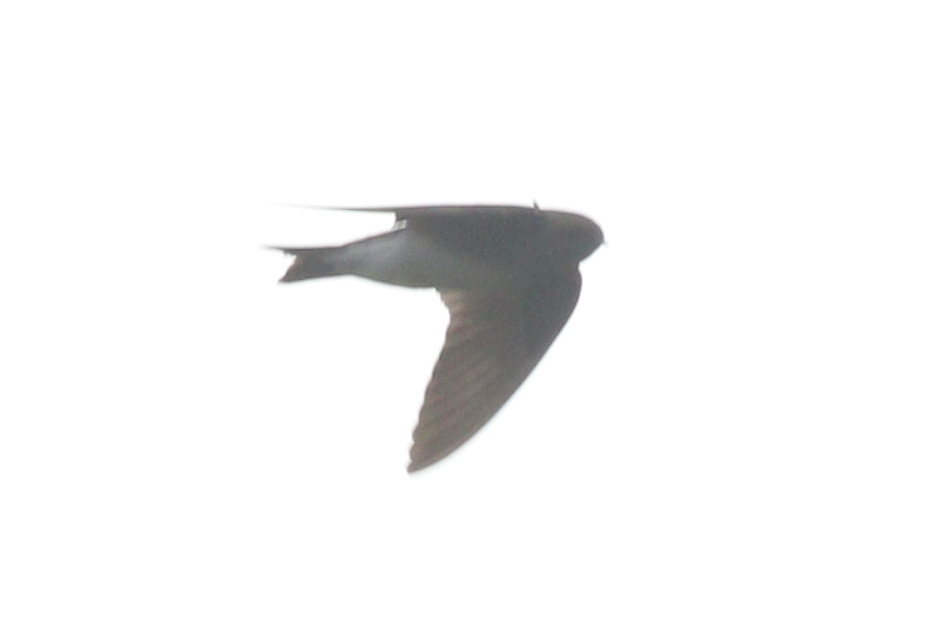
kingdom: Animalia
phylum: Chordata
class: Aves
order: Passeriformes
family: Hirundinidae
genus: Riparia
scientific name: Riparia paludicola
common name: Brown-throated martin
